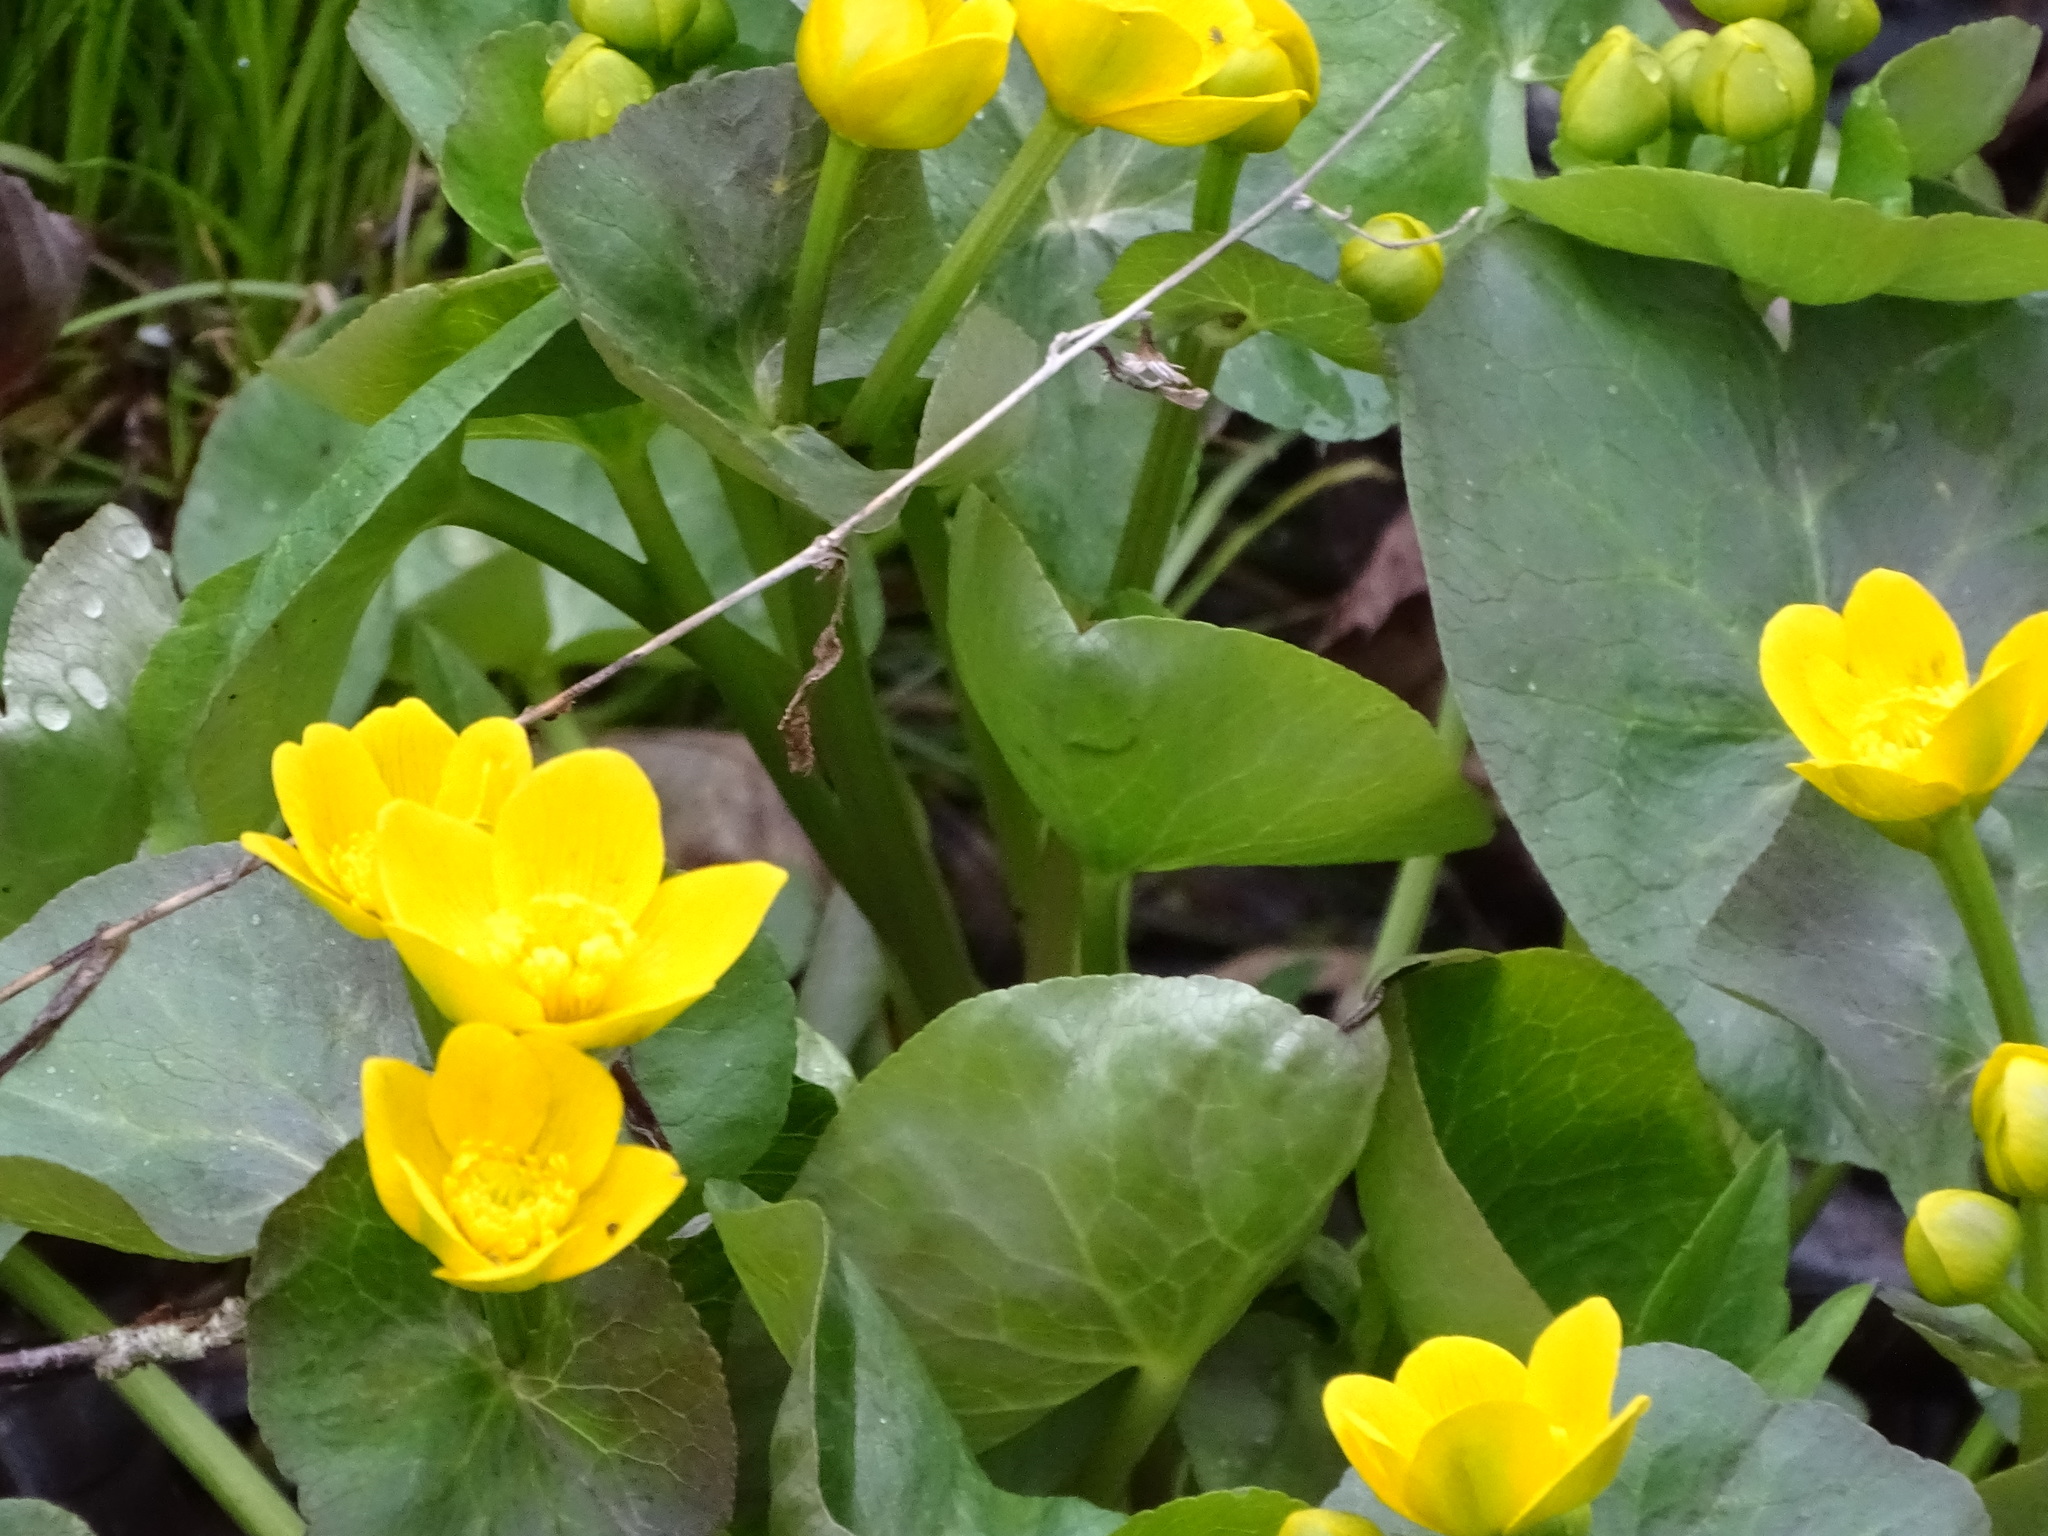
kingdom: Plantae
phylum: Tracheophyta
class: Magnoliopsida
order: Ranunculales
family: Ranunculaceae
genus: Caltha
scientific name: Caltha palustris
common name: Marsh marigold
